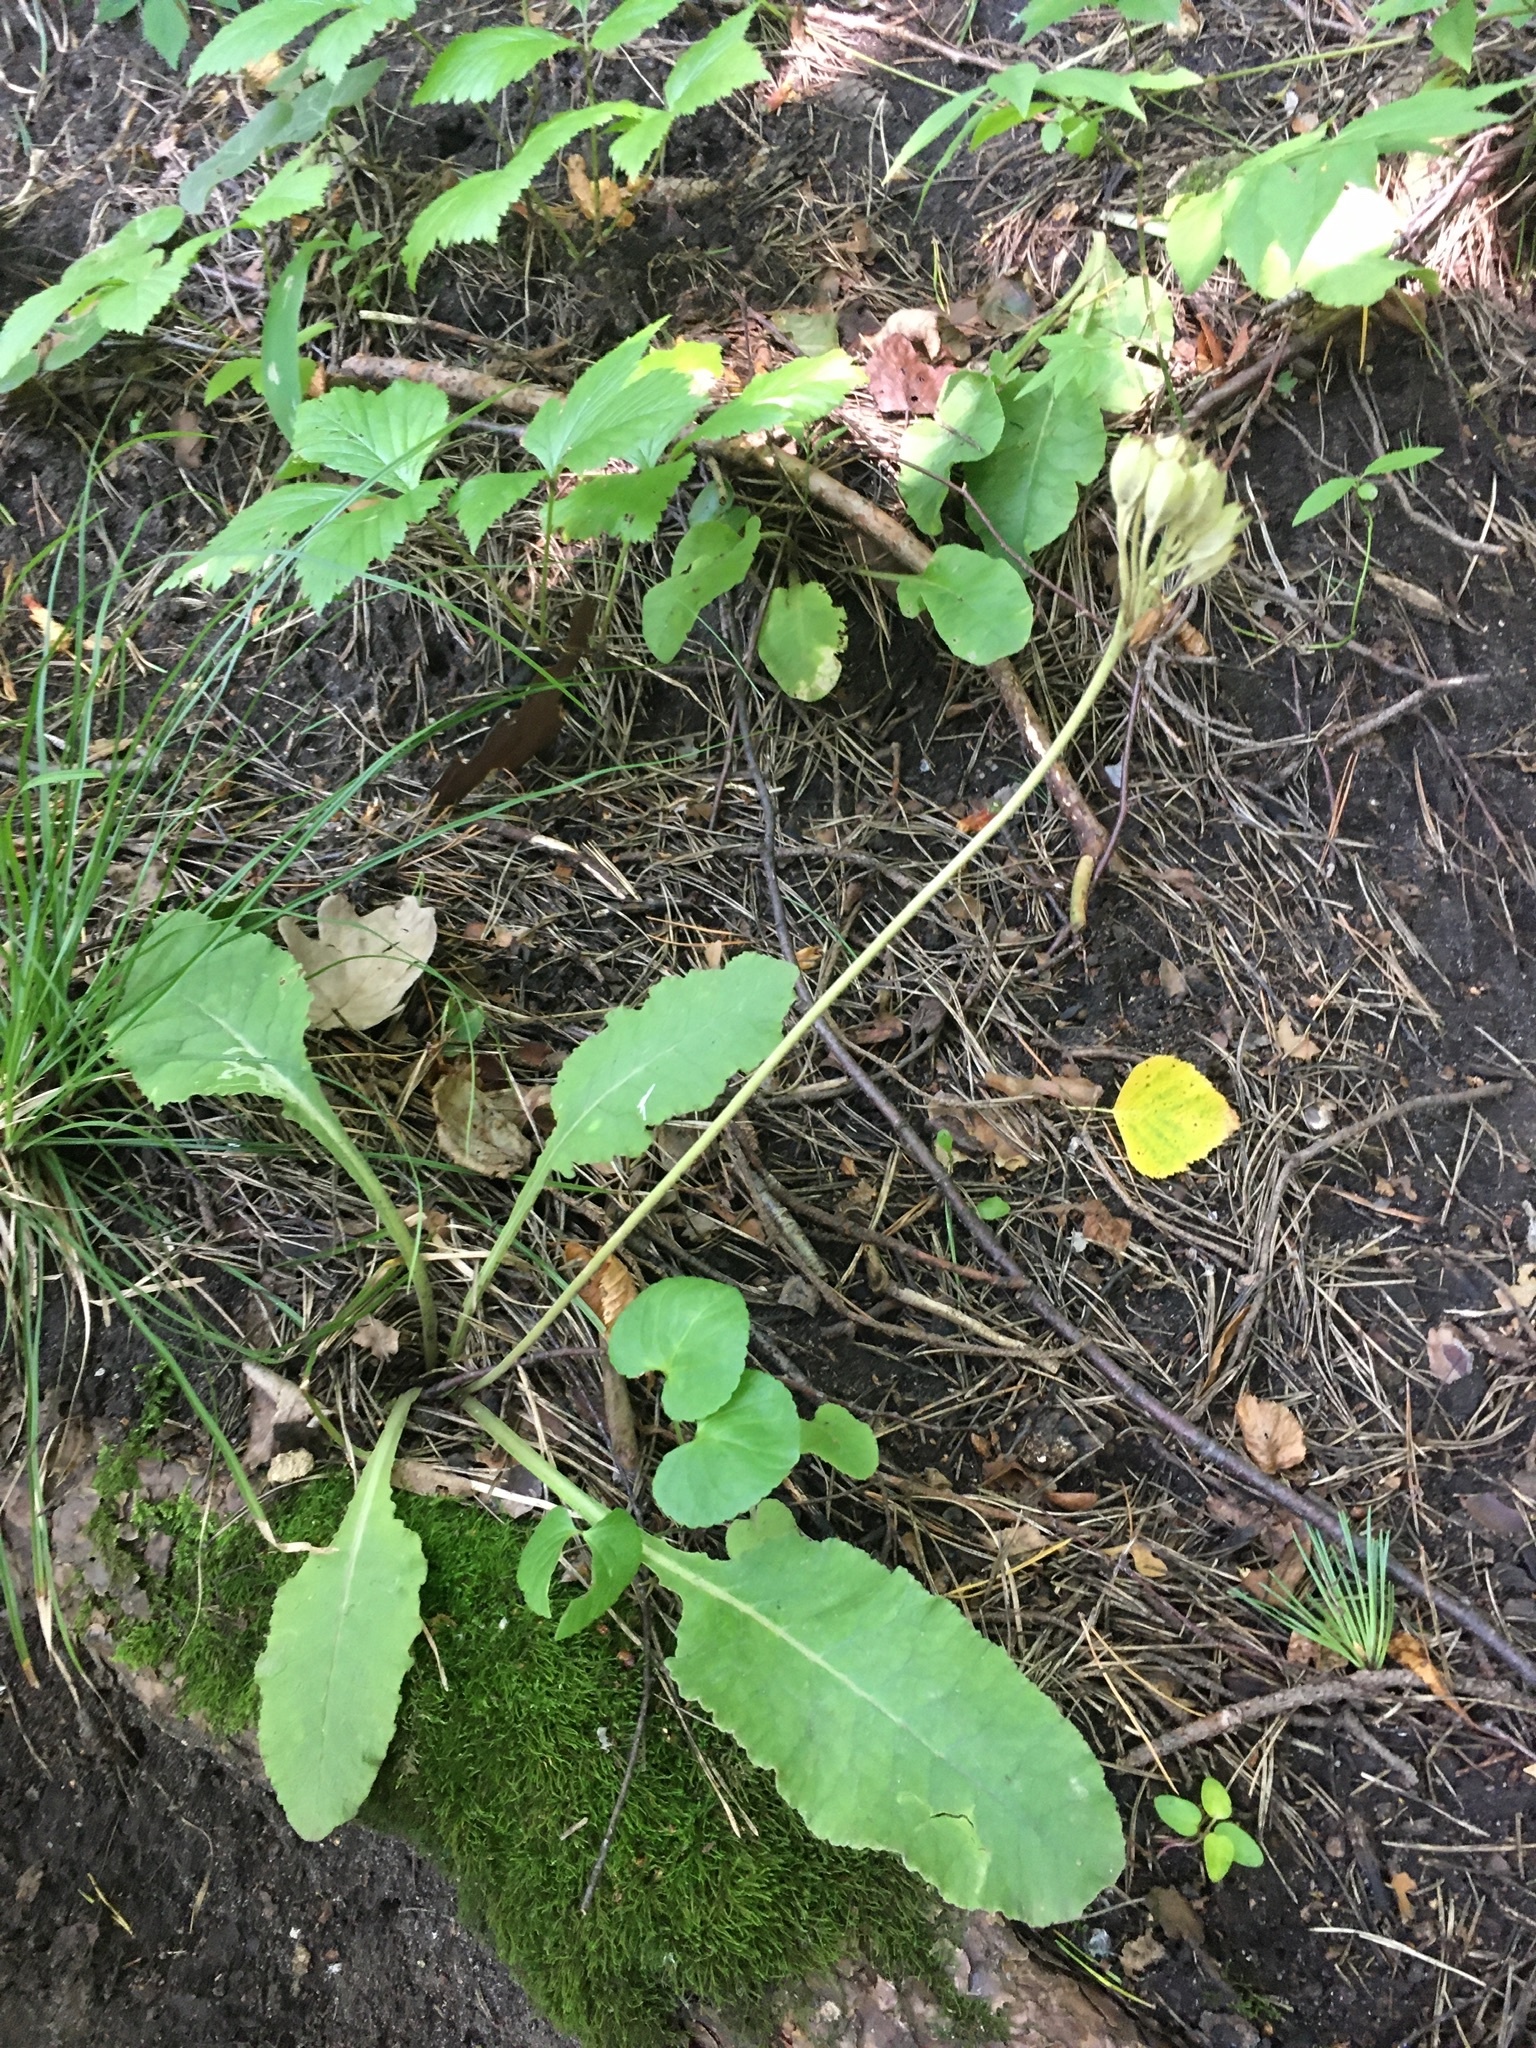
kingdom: Plantae
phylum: Tracheophyta
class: Magnoliopsida
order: Ericales
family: Primulaceae
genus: Primula
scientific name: Primula veris
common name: Cowslip
